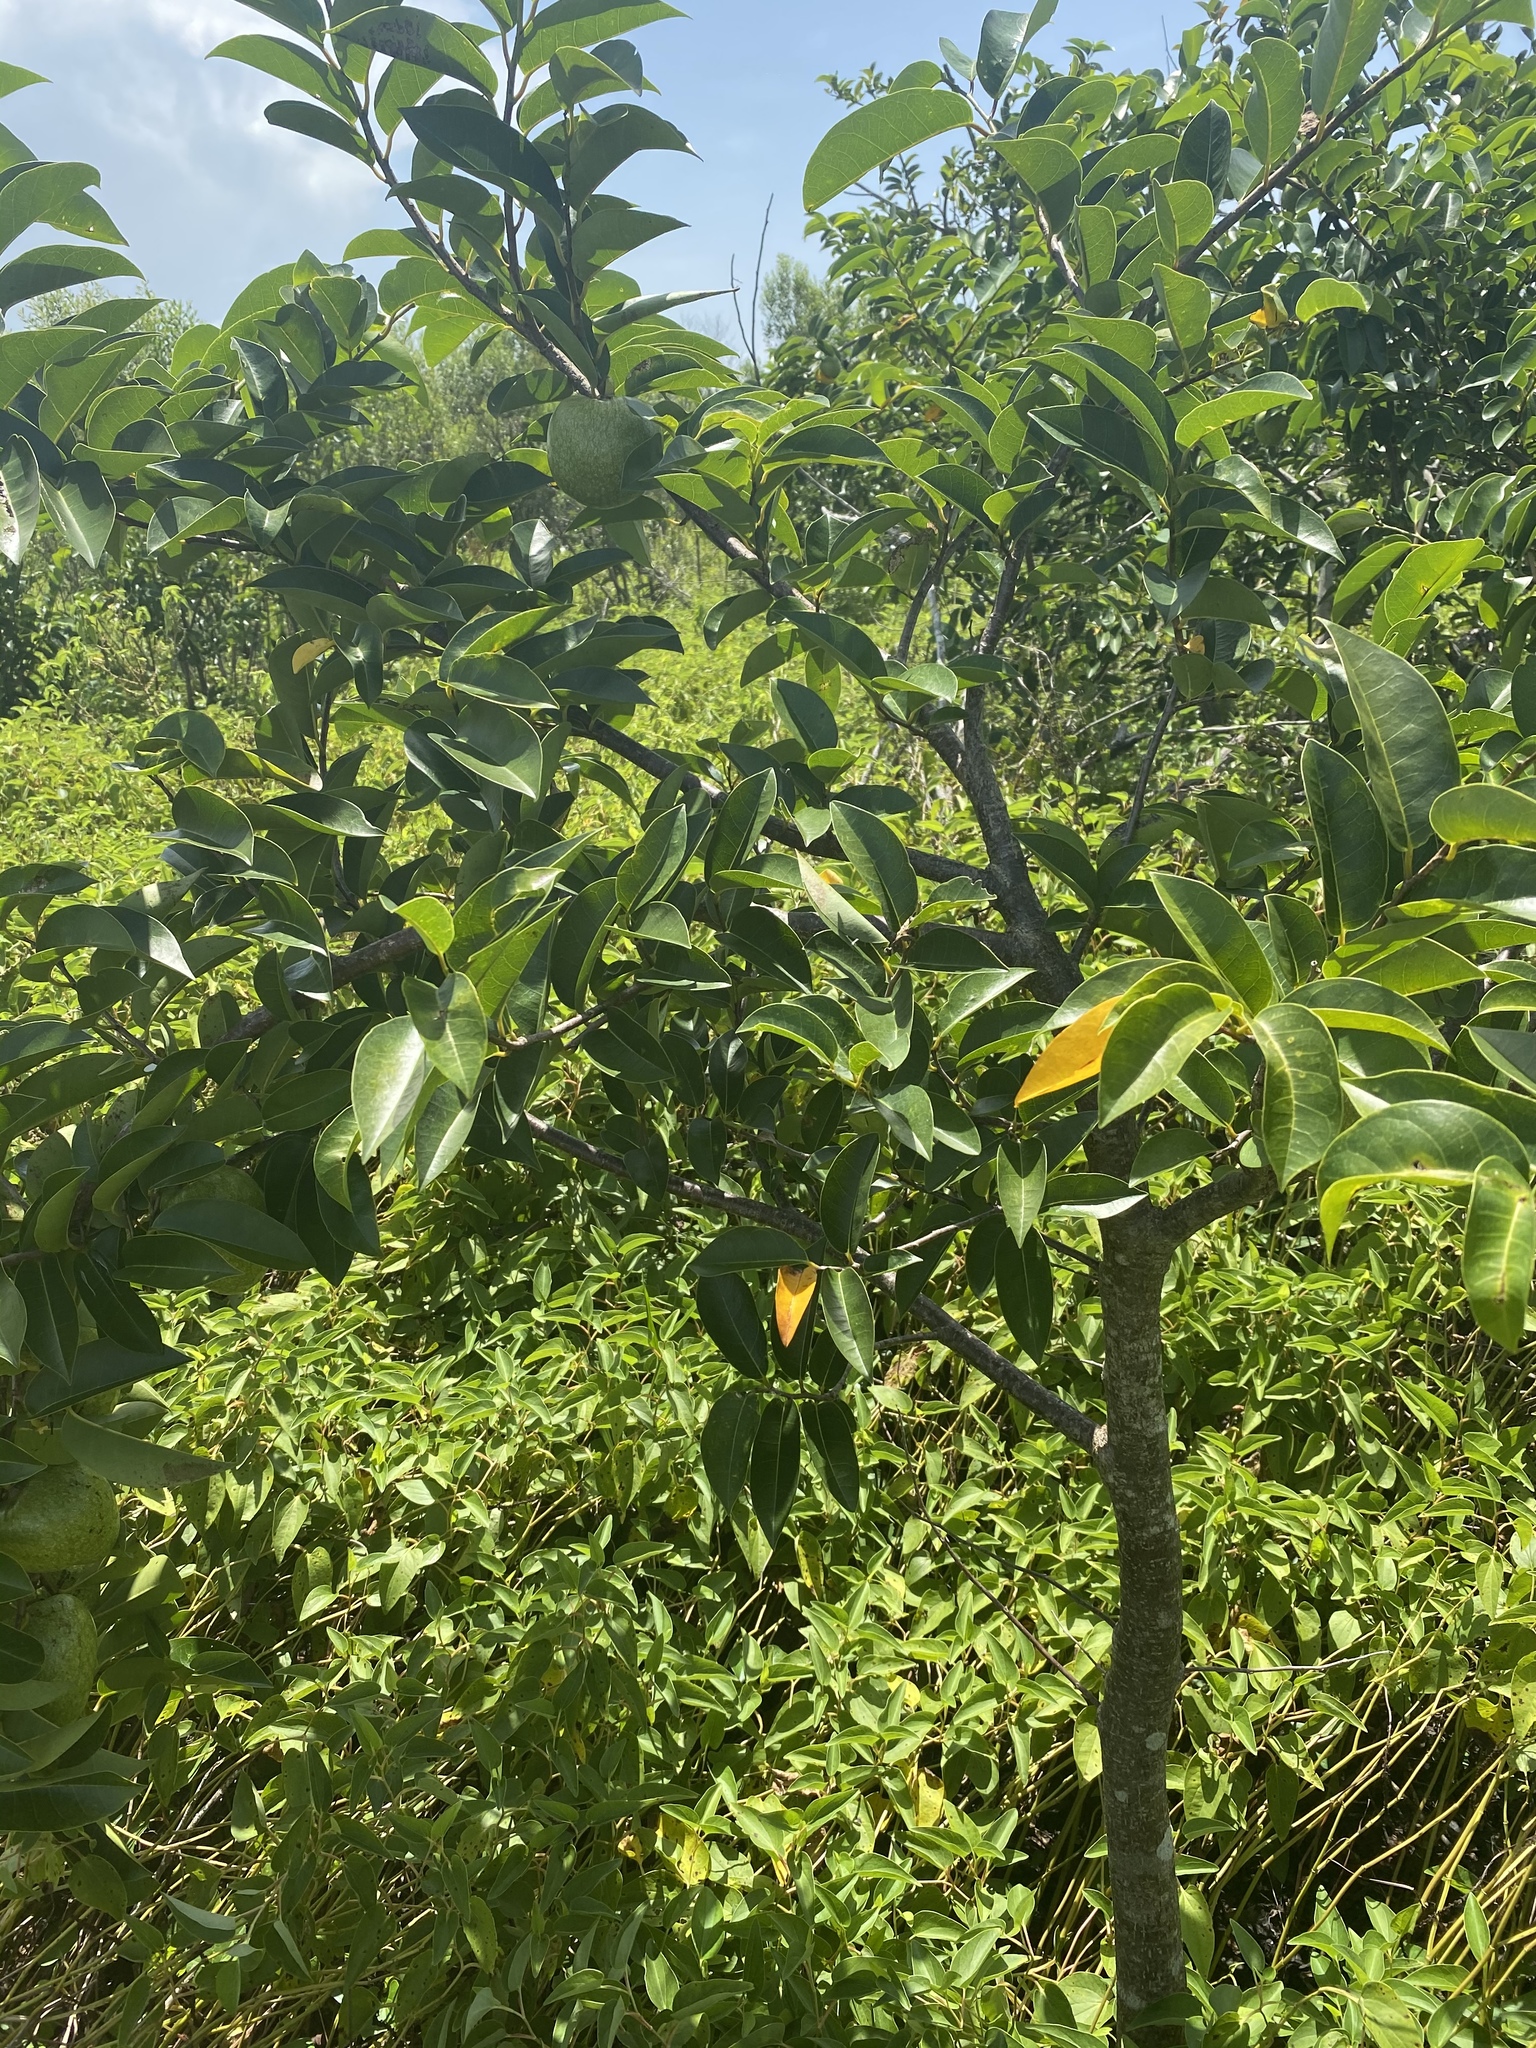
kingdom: Plantae
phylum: Tracheophyta
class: Magnoliopsida
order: Magnoliales
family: Annonaceae
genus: Annona
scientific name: Annona glabra
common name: Monkey apple
